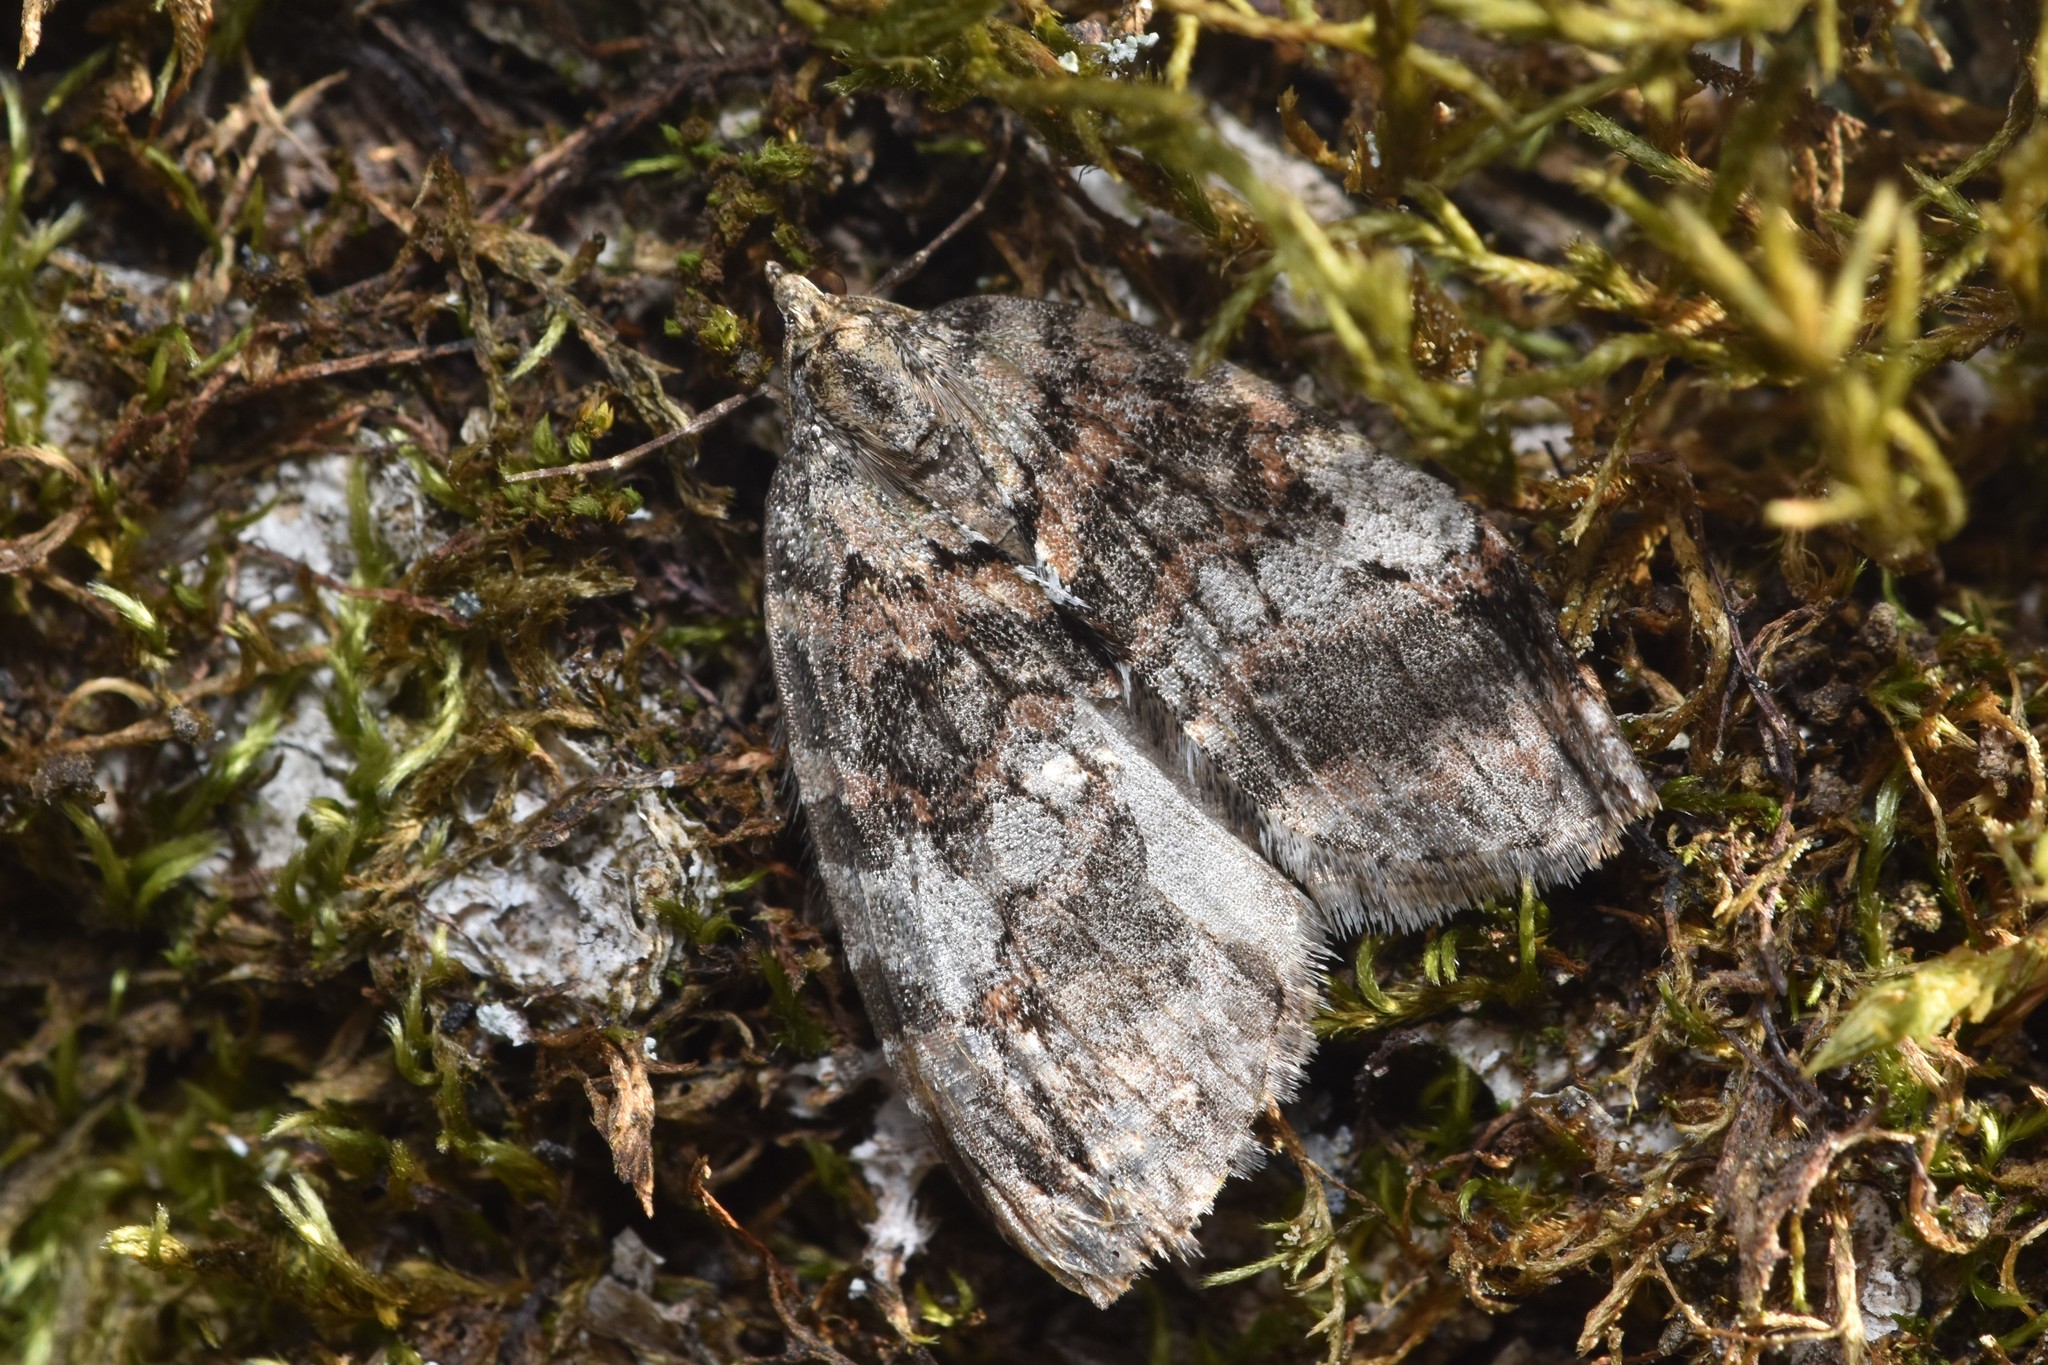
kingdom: Animalia
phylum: Arthropoda
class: Insecta
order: Lepidoptera
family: Geometridae
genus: Hydriomena
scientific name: Hydriomena nubilofasciata
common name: Oak winter highflier moth
